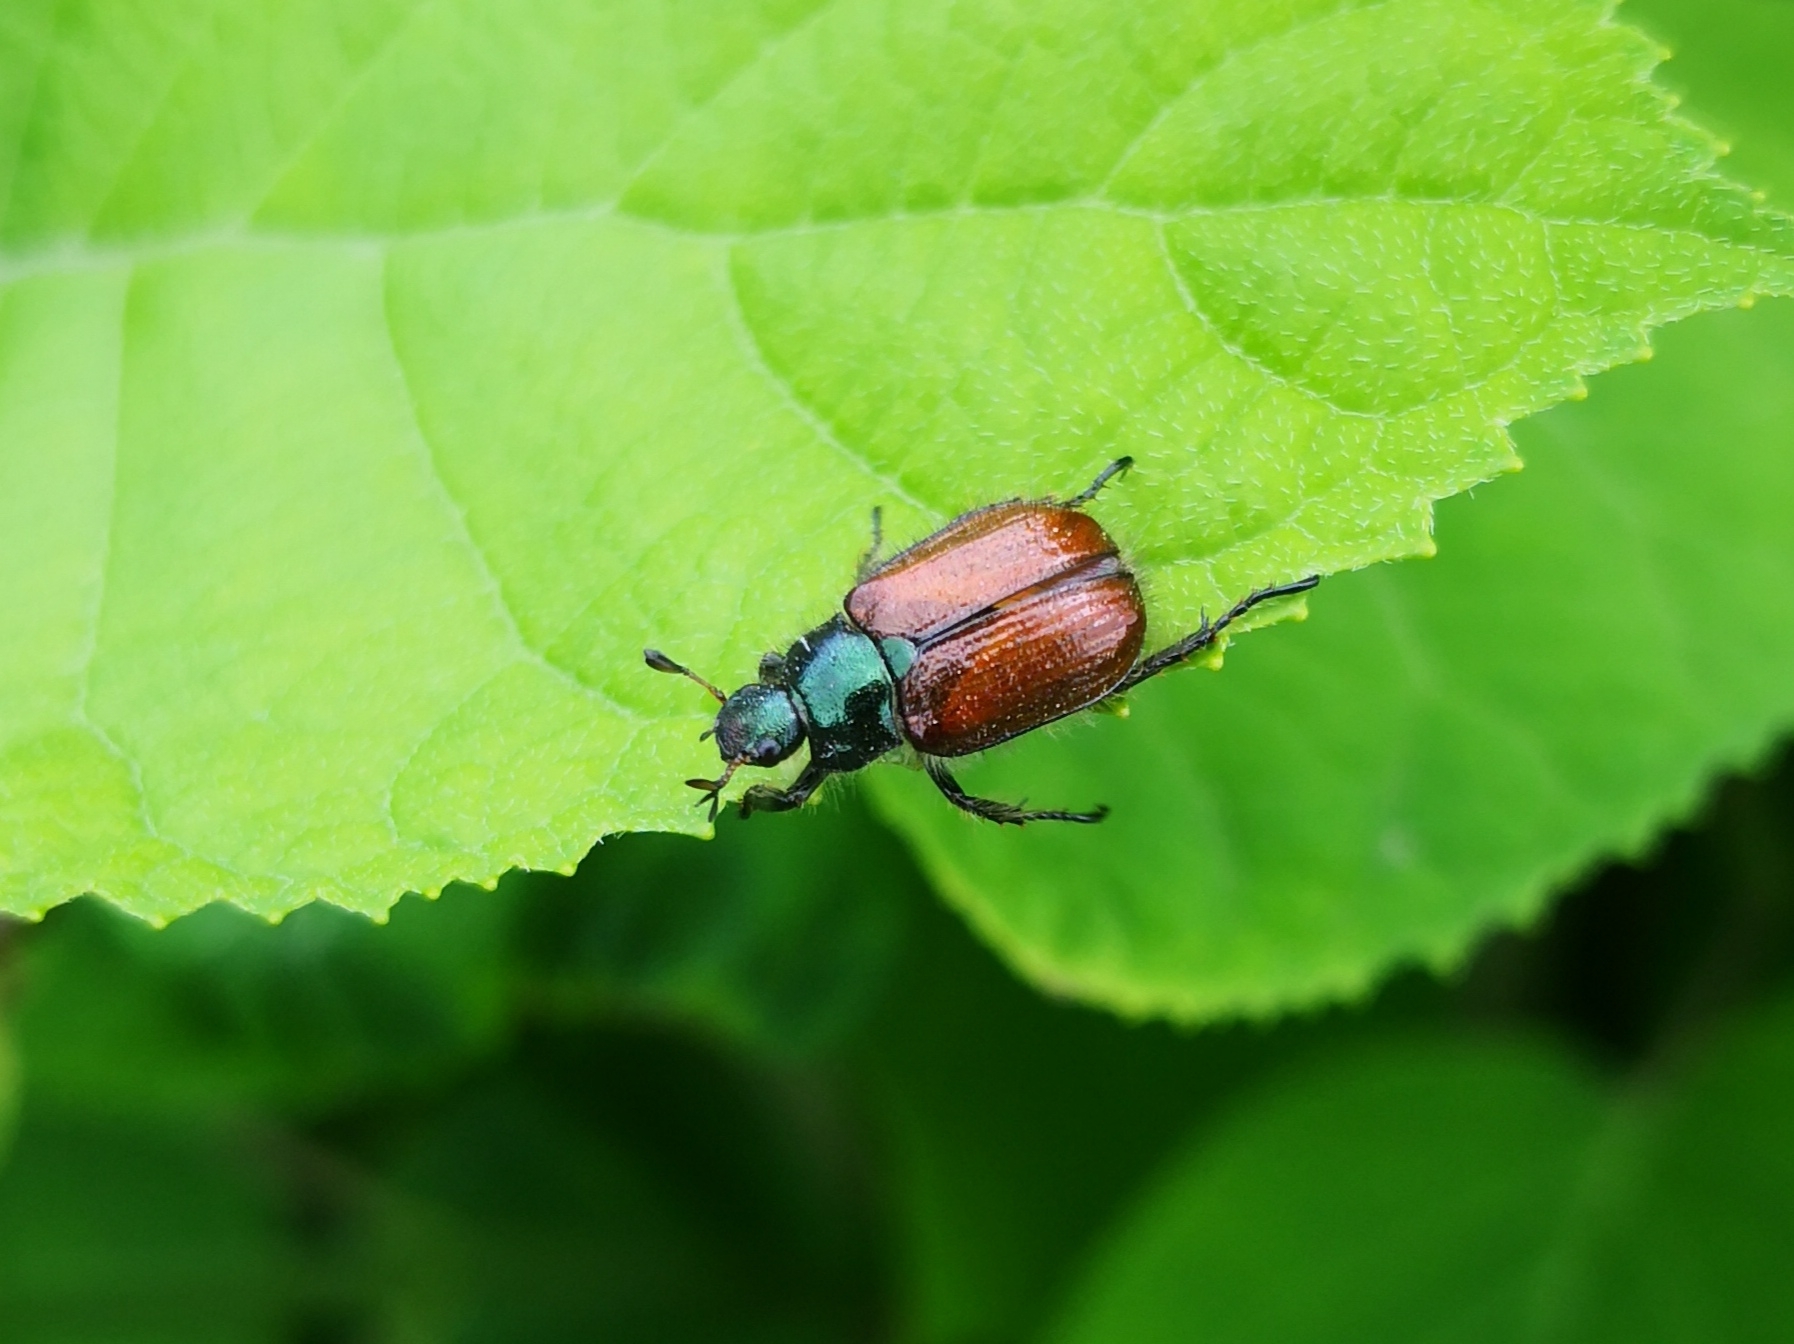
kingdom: Animalia
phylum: Arthropoda
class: Insecta
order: Coleoptera
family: Scarabaeidae
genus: Phyllopertha
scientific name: Phyllopertha horticola
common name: Garden chafer
